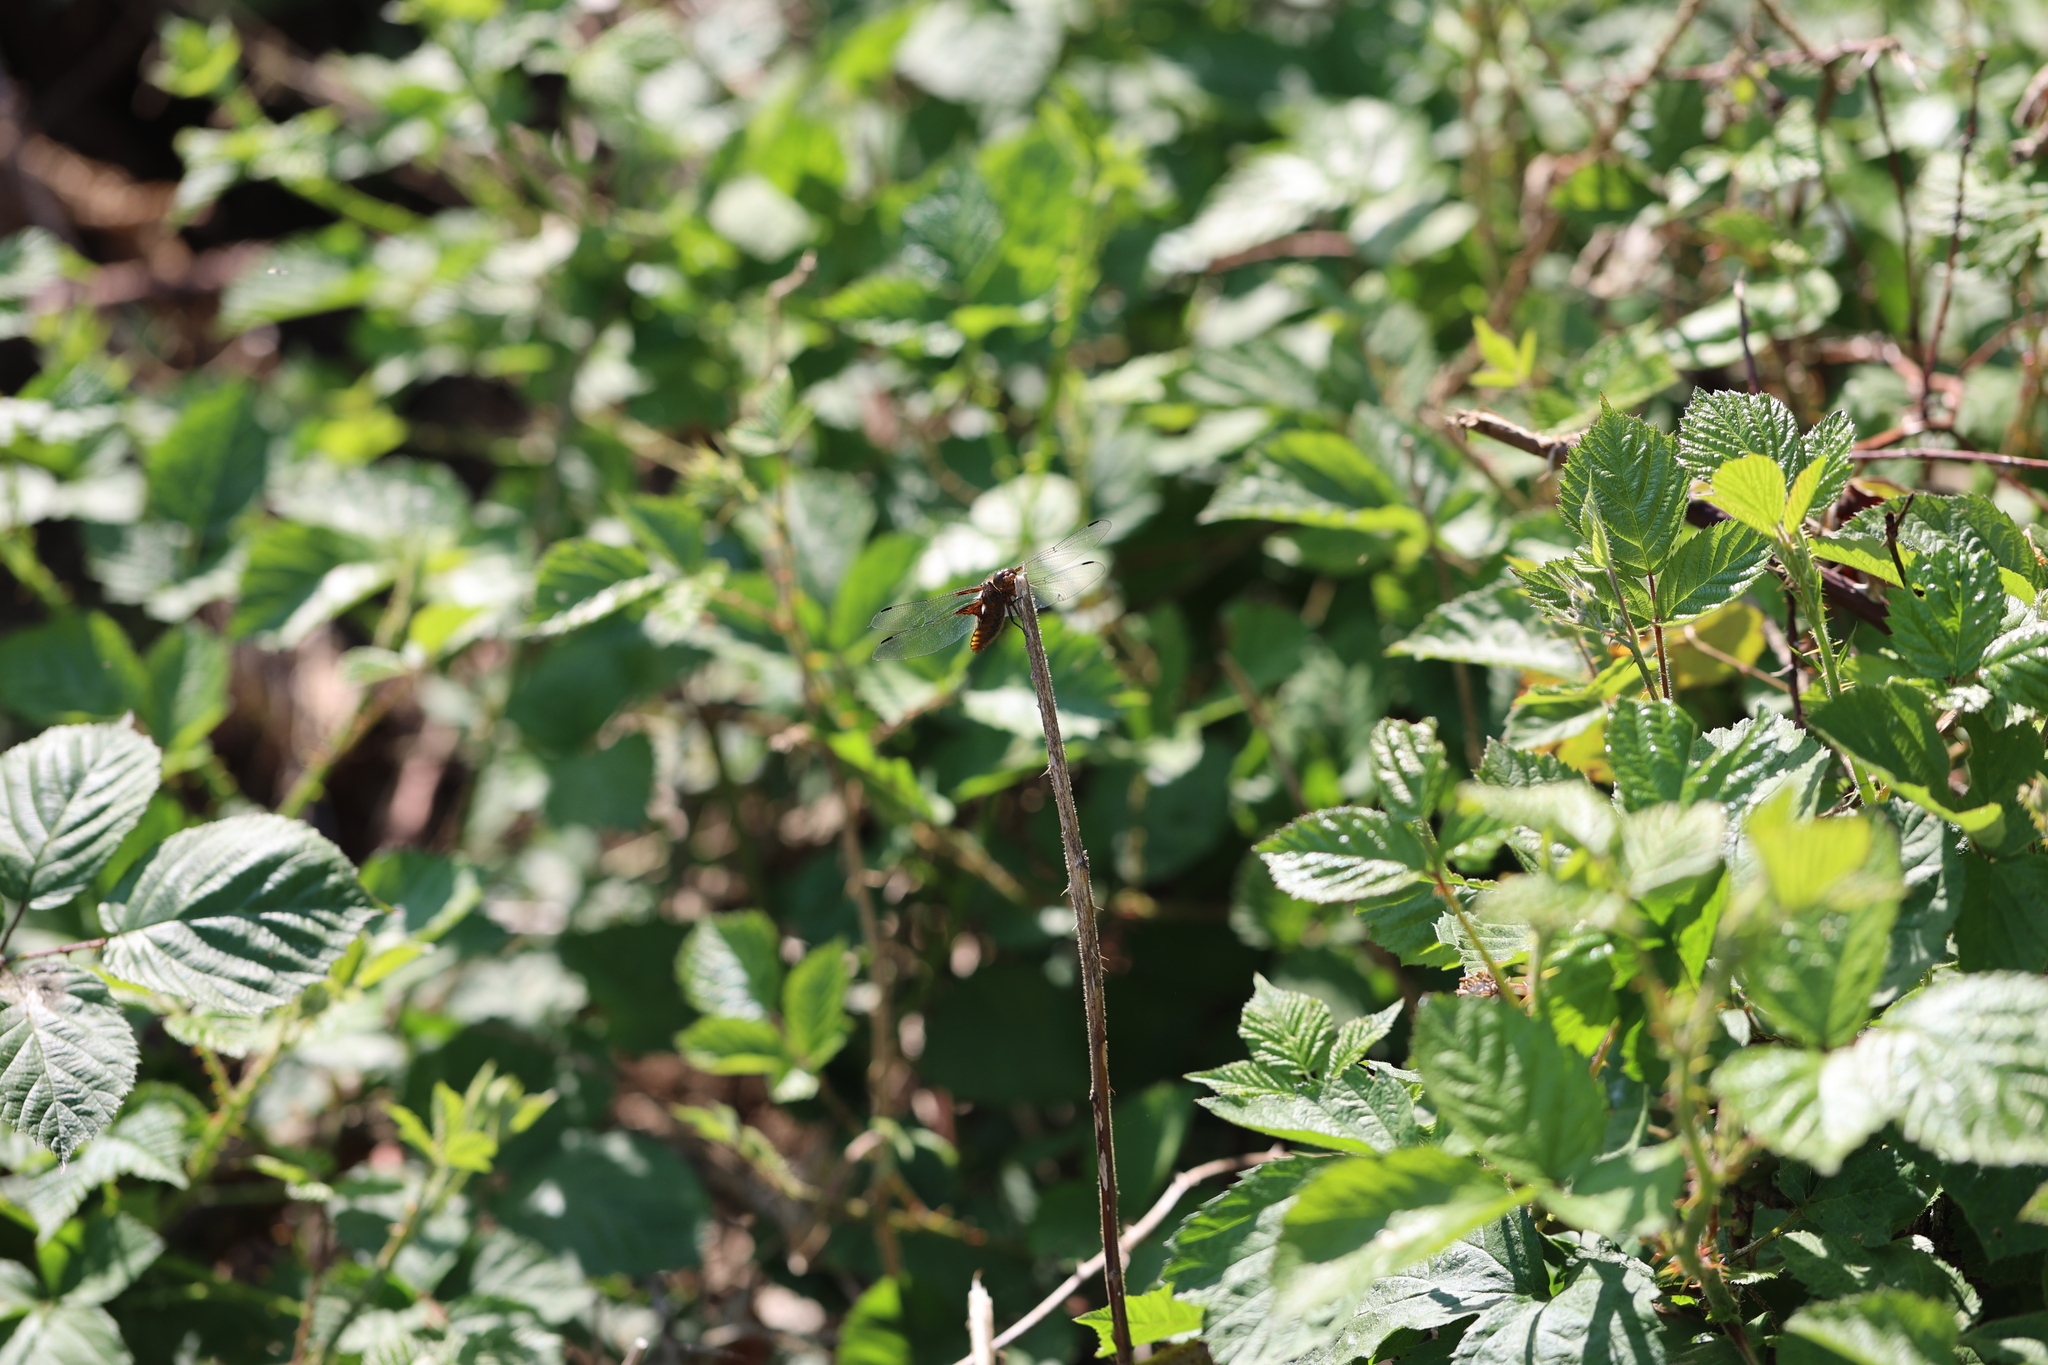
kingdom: Animalia
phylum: Arthropoda
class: Insecta
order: Odonata
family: Libellulidae
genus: Libellula
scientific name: Libellula depressa
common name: Broad-bodied chaser
